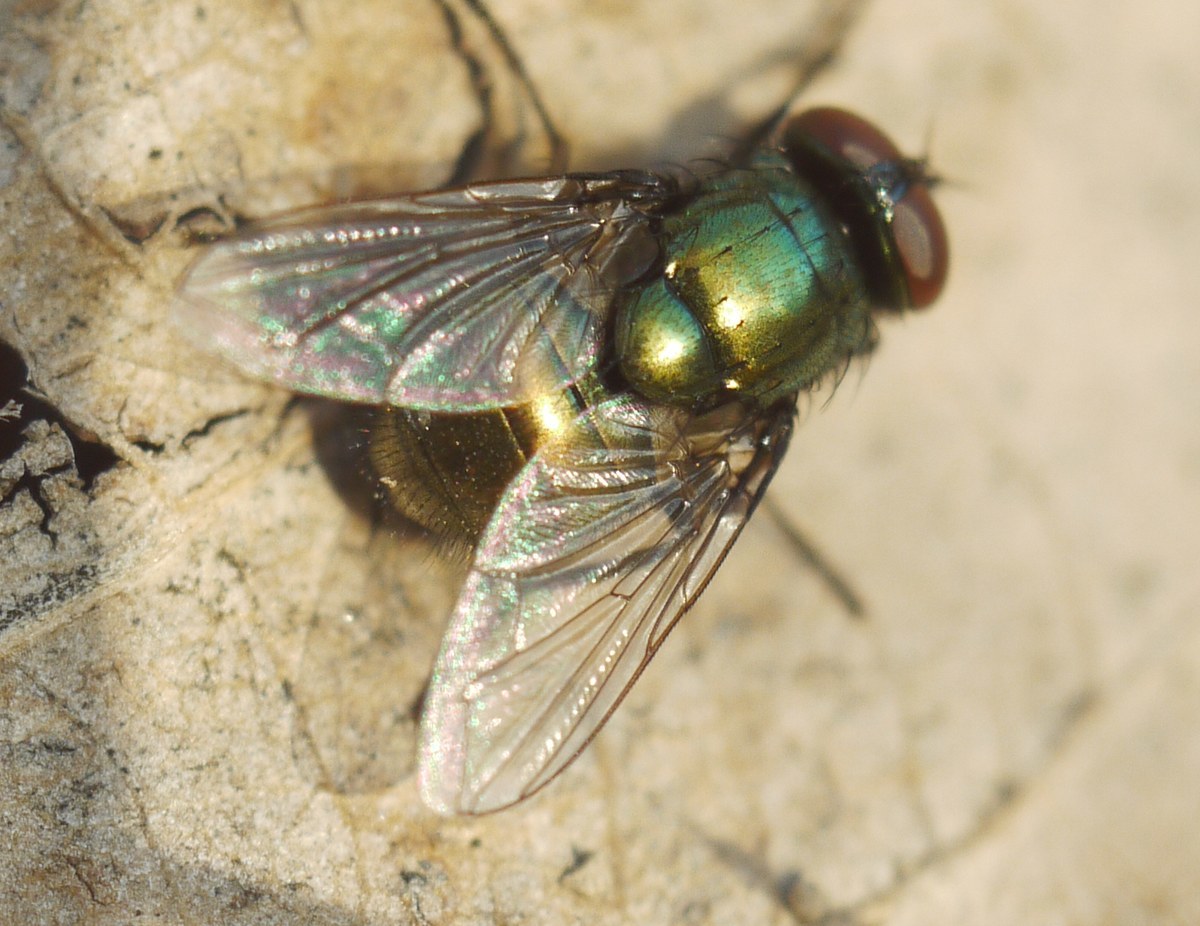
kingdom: Animalia
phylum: Arthropoda
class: Insecta
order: Diptera
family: Muscidae
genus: Neomyia
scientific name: Neomyia cornicina
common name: House fly
